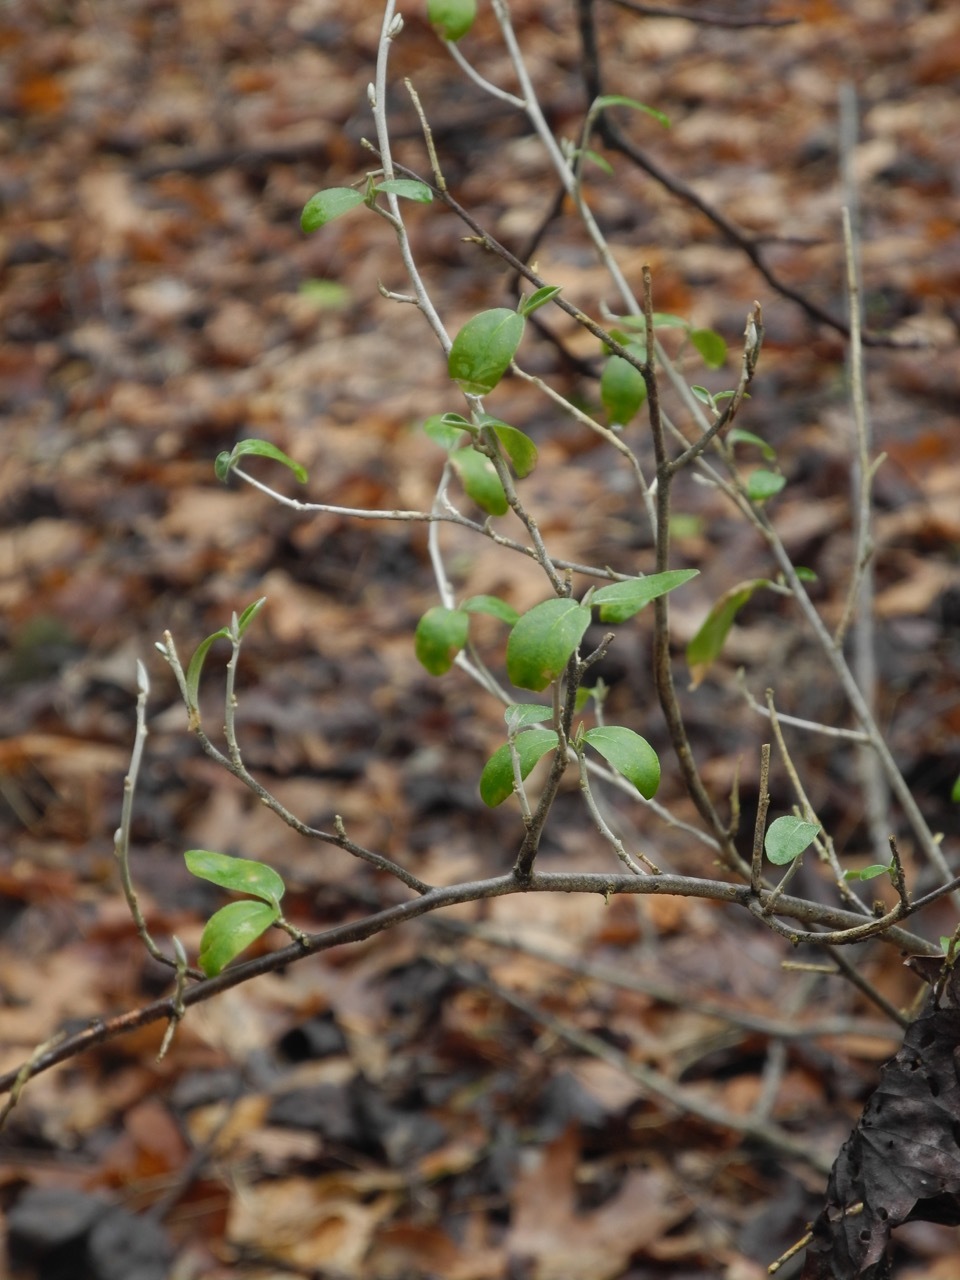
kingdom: Plantae
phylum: Tracheophyta
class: Magnoliopsida
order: Rosales
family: Elaeagnaceae
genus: Elaeagnus
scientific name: Elaeagnus umbellata
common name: Autumn olive
